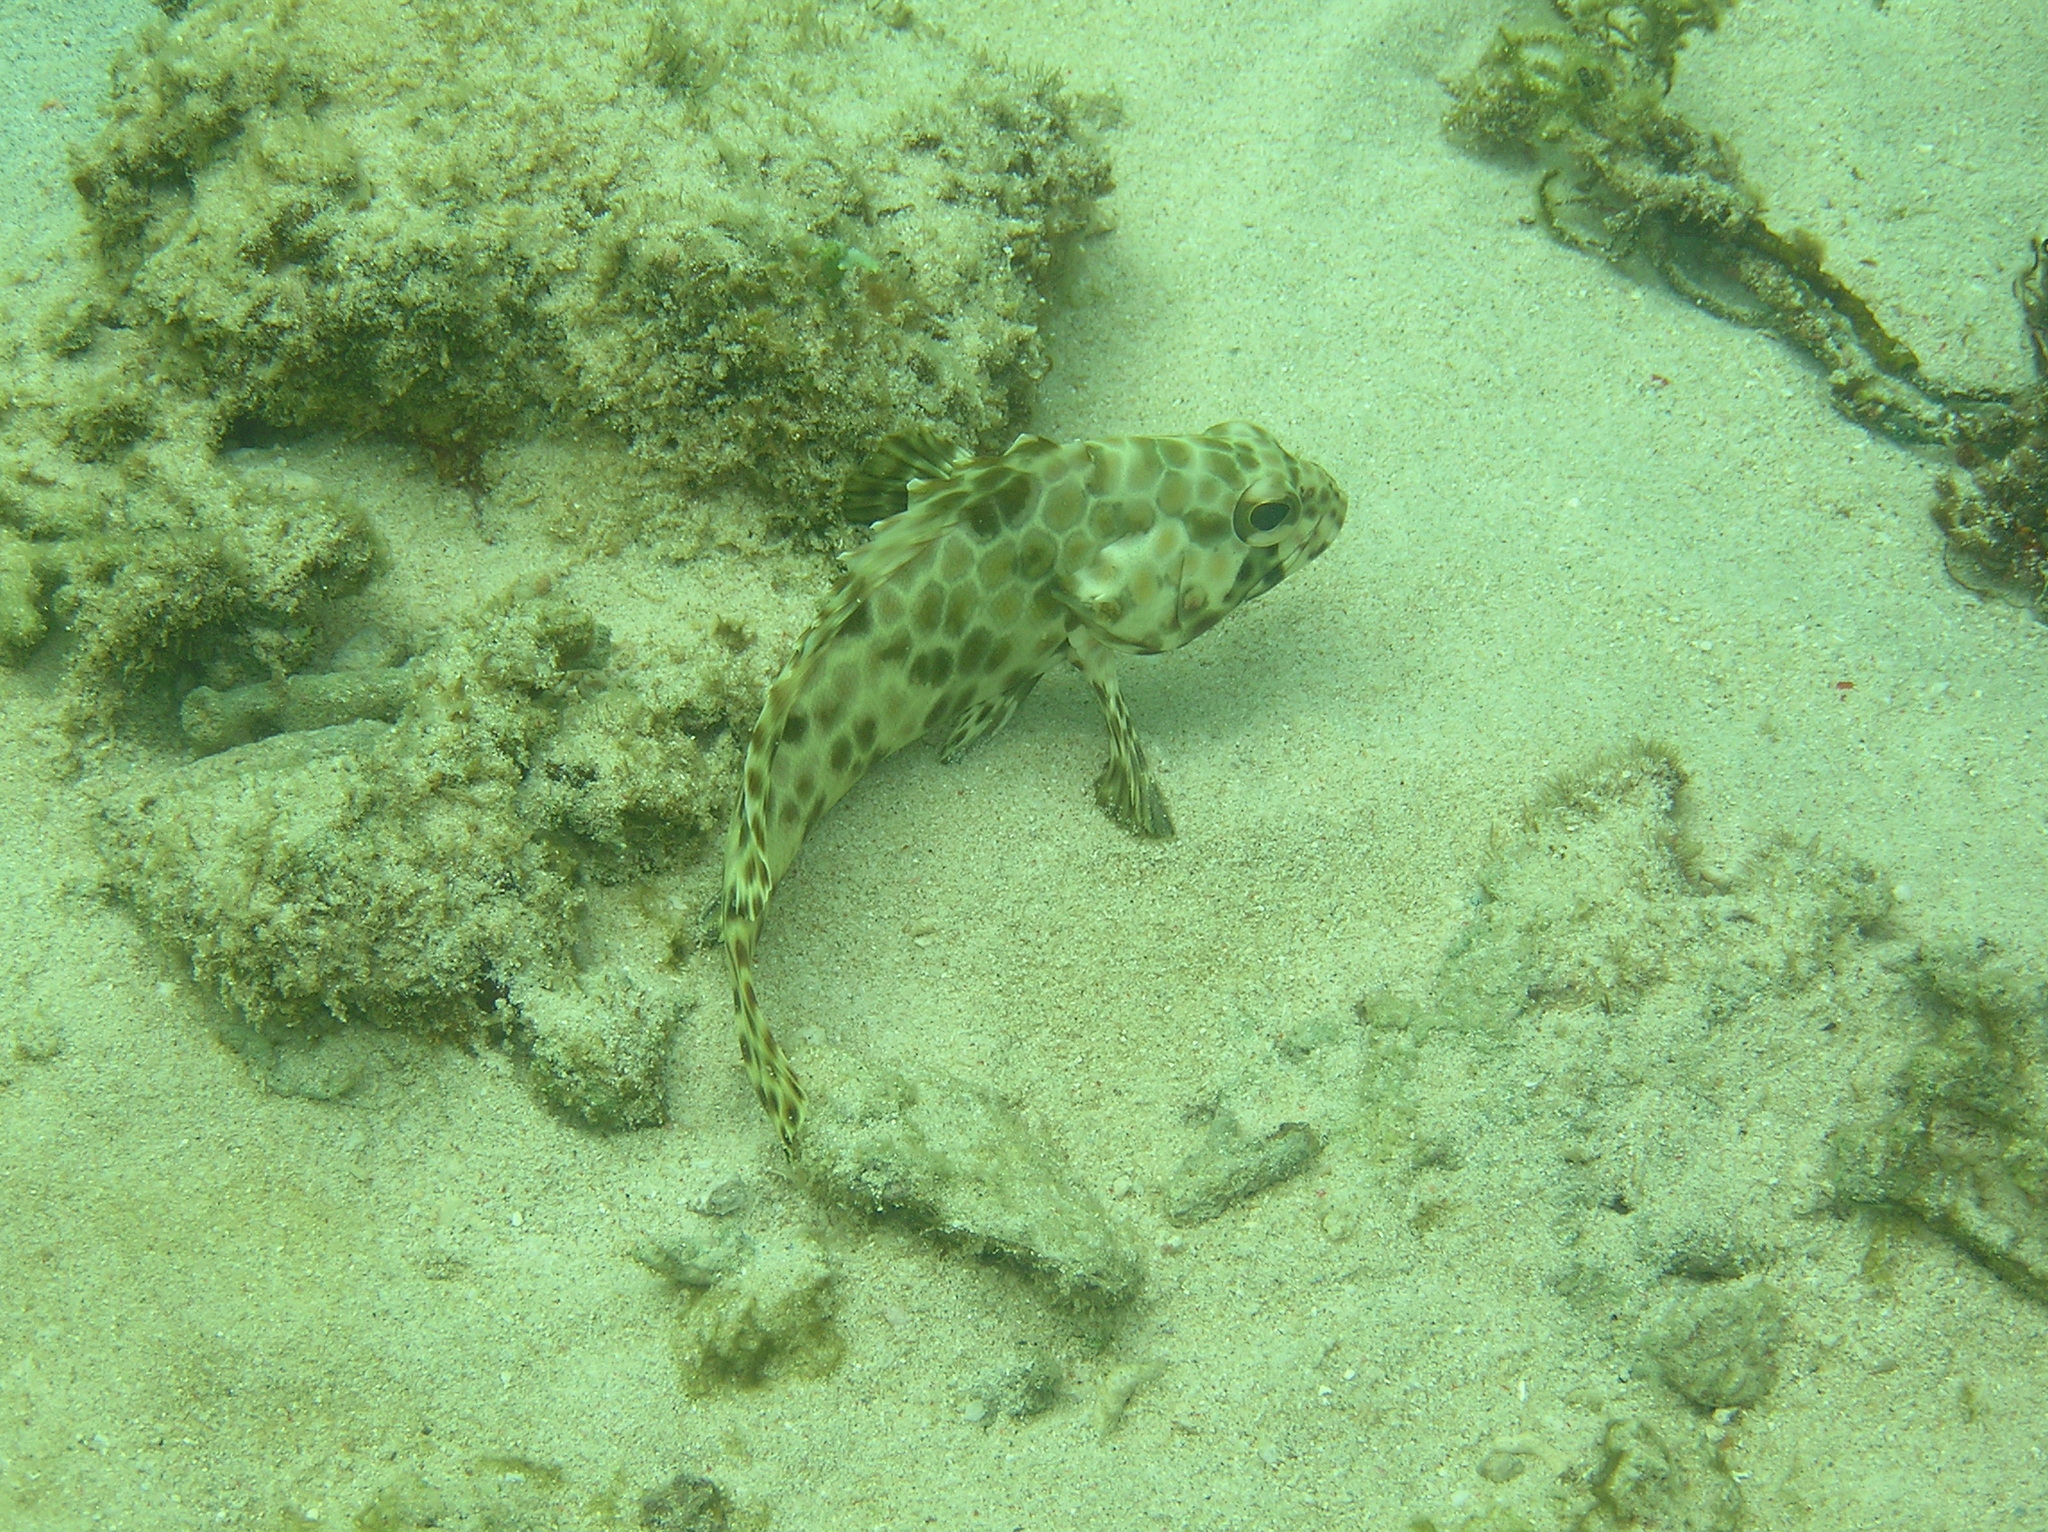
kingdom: Animalia
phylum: Chordata
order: Perciformes
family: Serranidae
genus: Epinephelus
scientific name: Epinephelus quoyanus
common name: Longfin grouper
